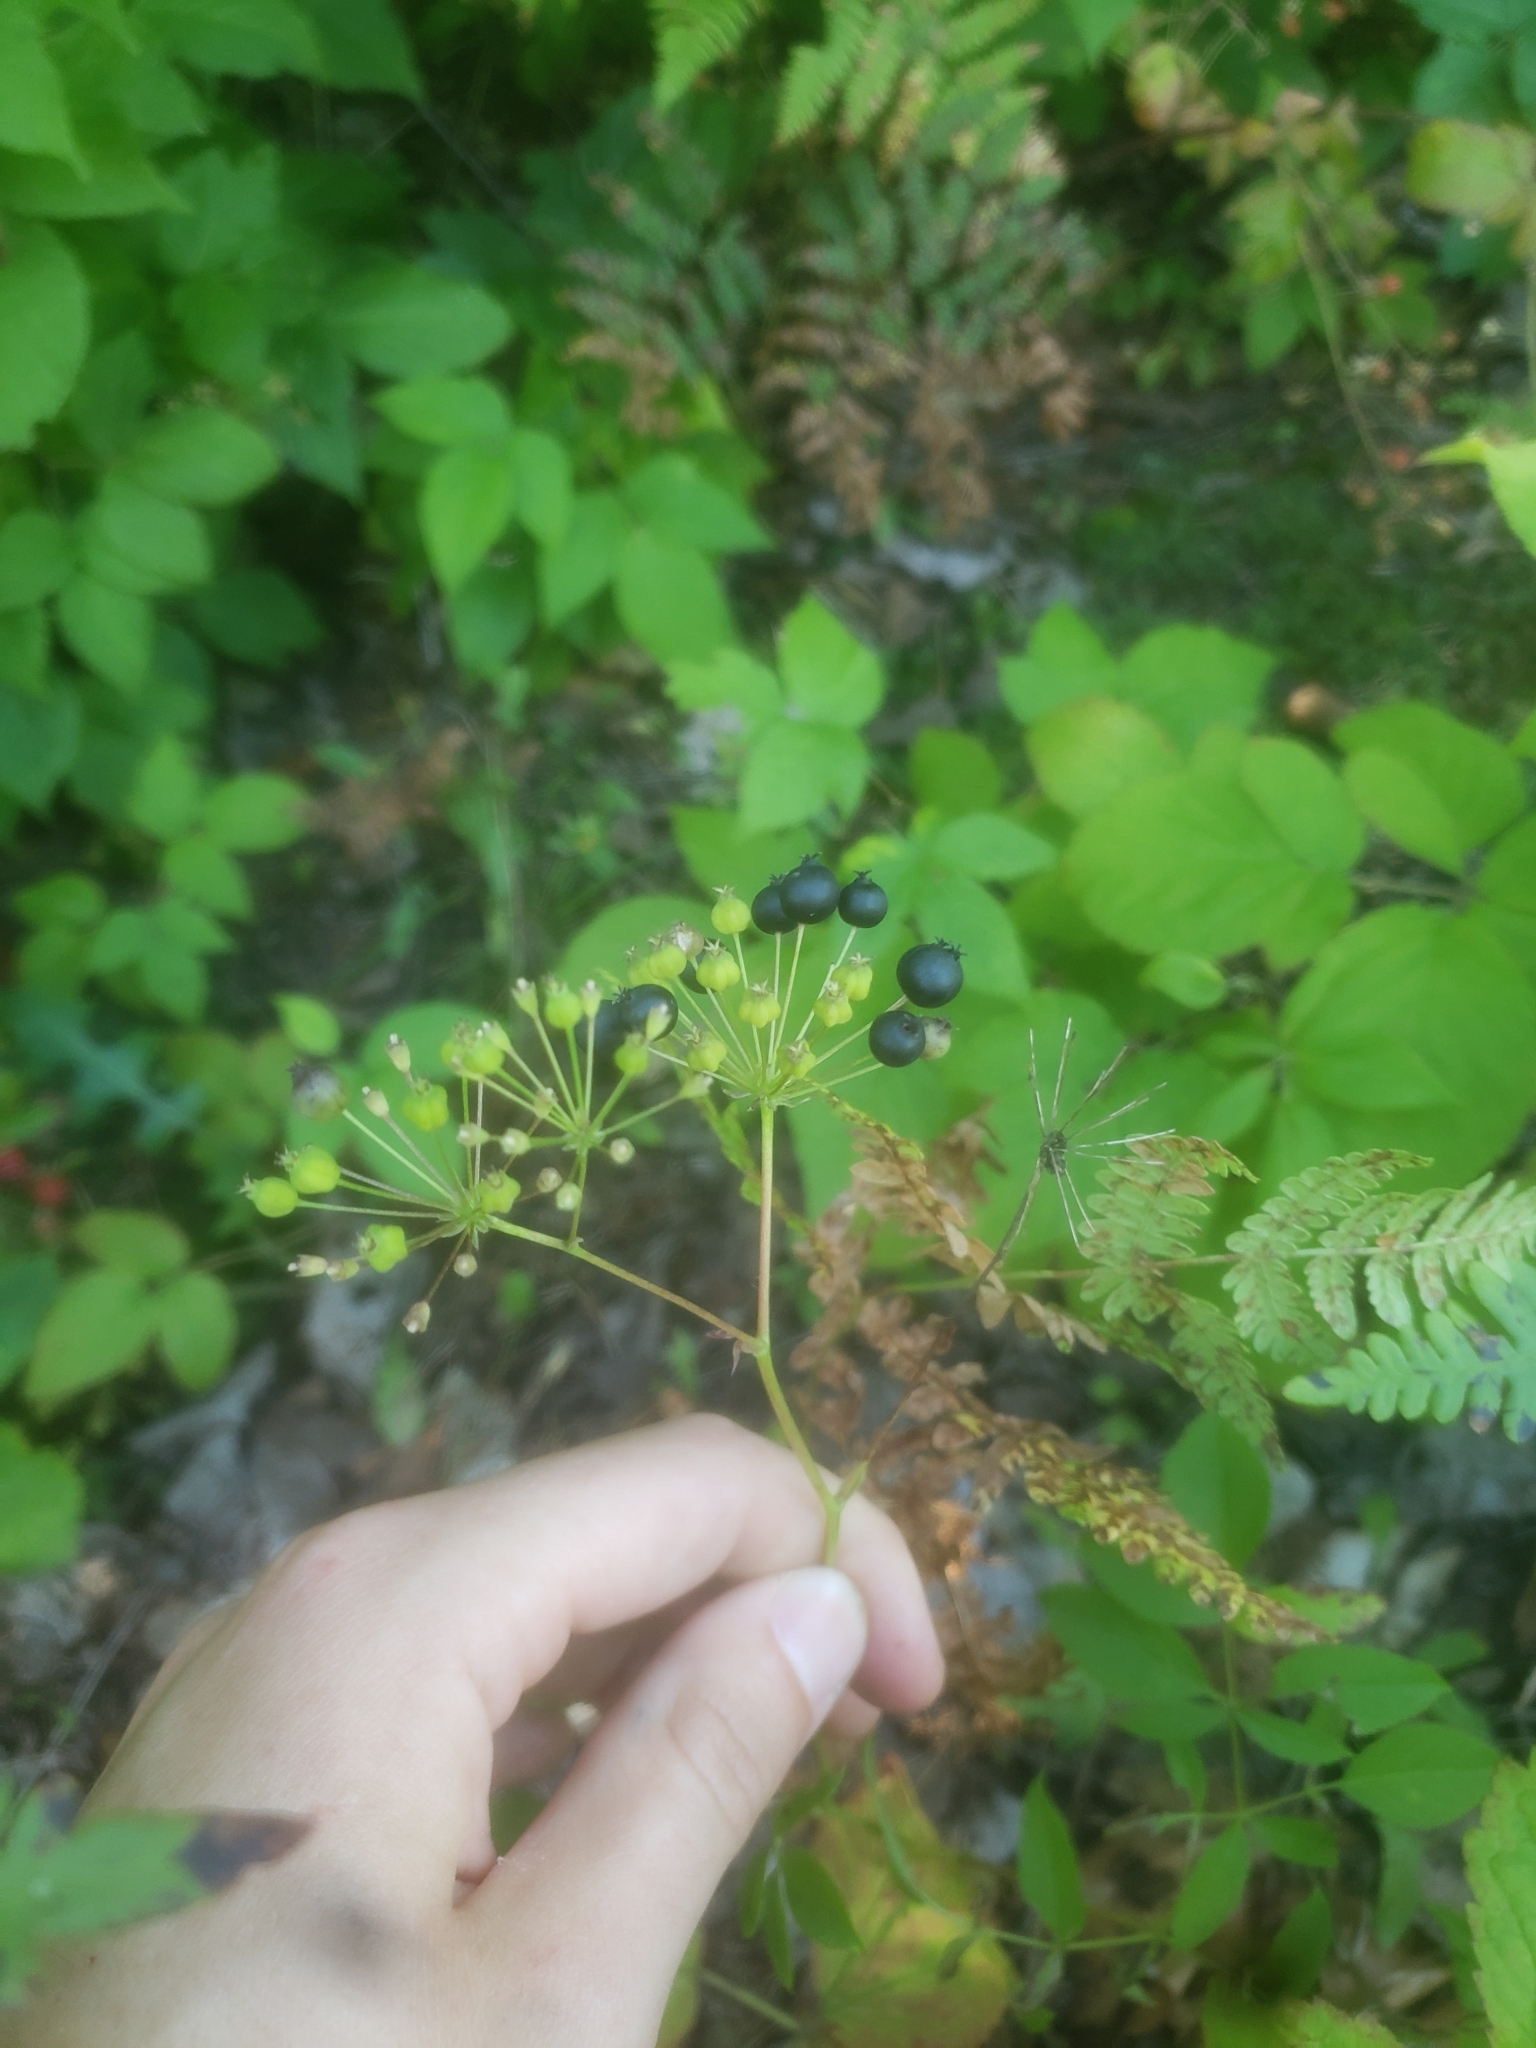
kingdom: Plantae
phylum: Tracheophyta
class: Magnoliopsida
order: Apiales
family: Araliaceae
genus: Aralia
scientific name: Aralia hispida
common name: Bristly sarsaparilla
